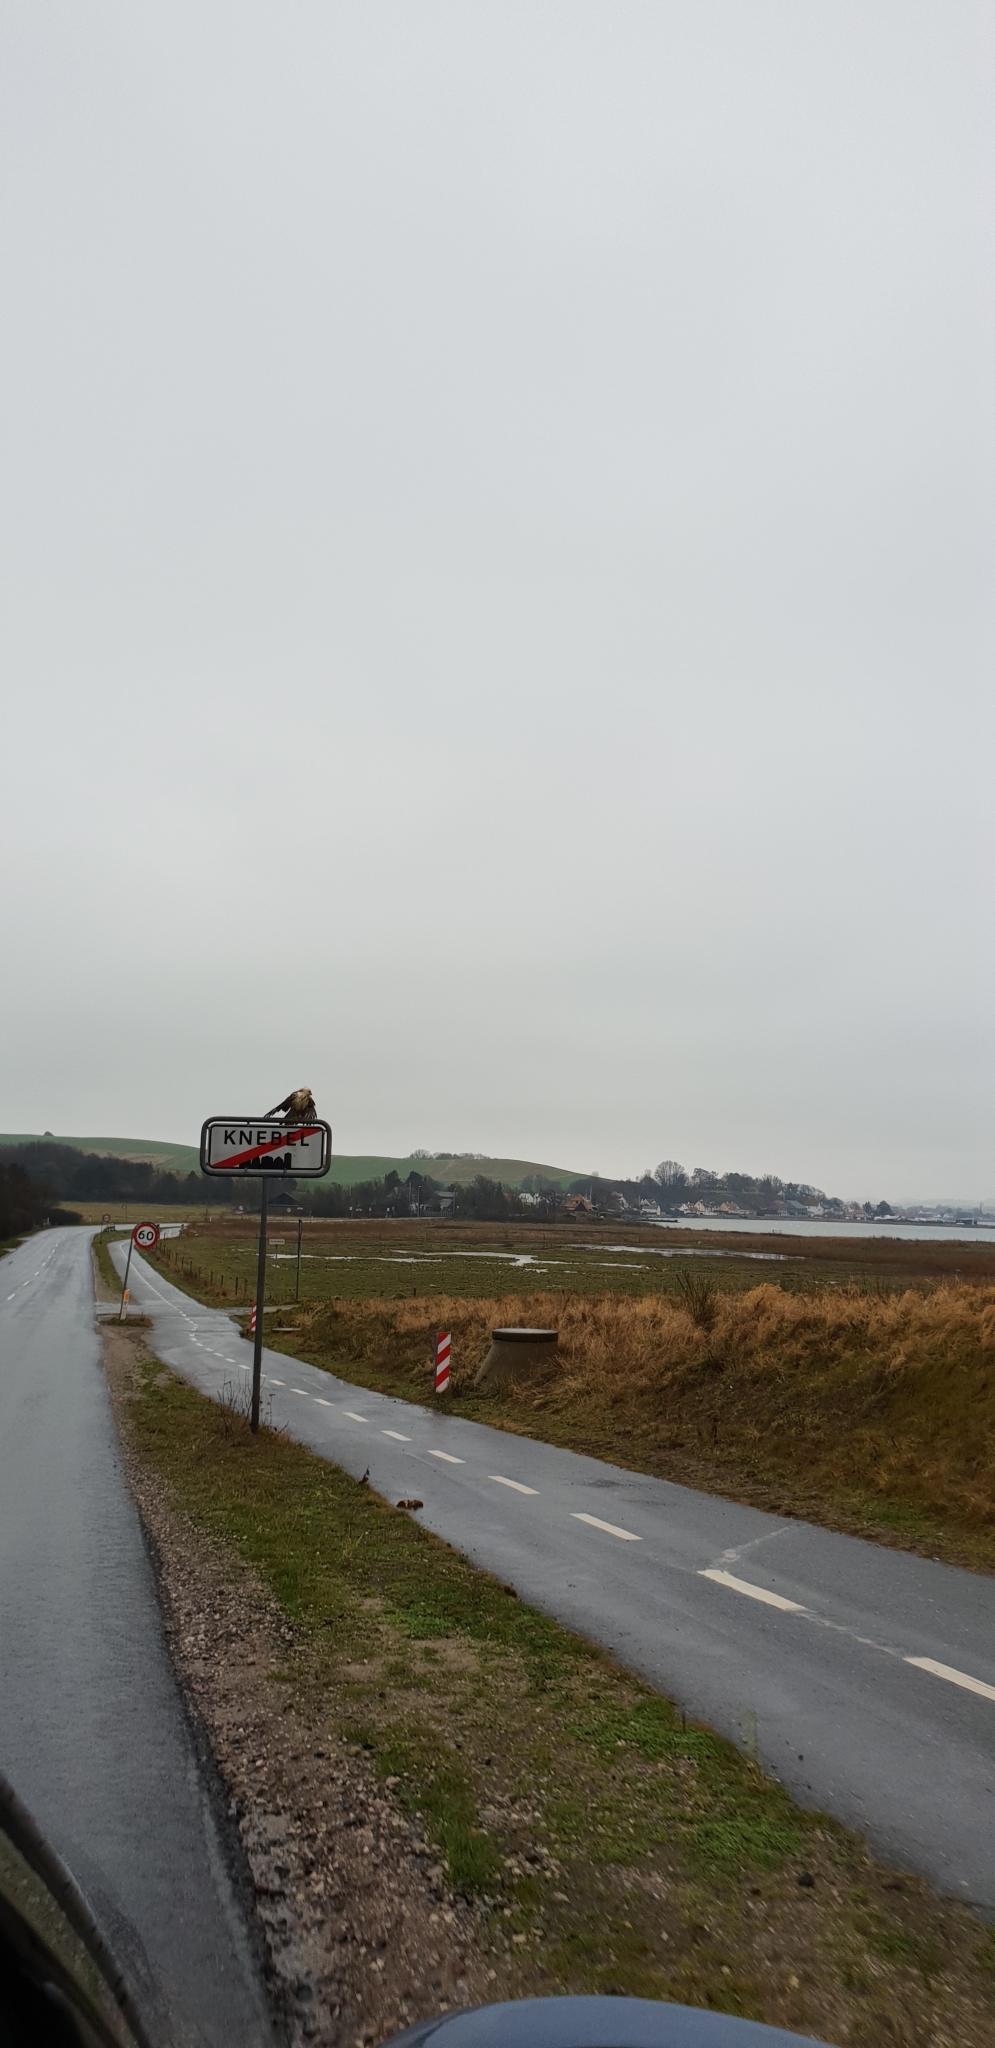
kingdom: Animalia
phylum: Chordata
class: Aves
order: Accipitriformes
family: Accipitridae
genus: Buteo
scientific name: Buteo buteo
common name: Common buzzard
